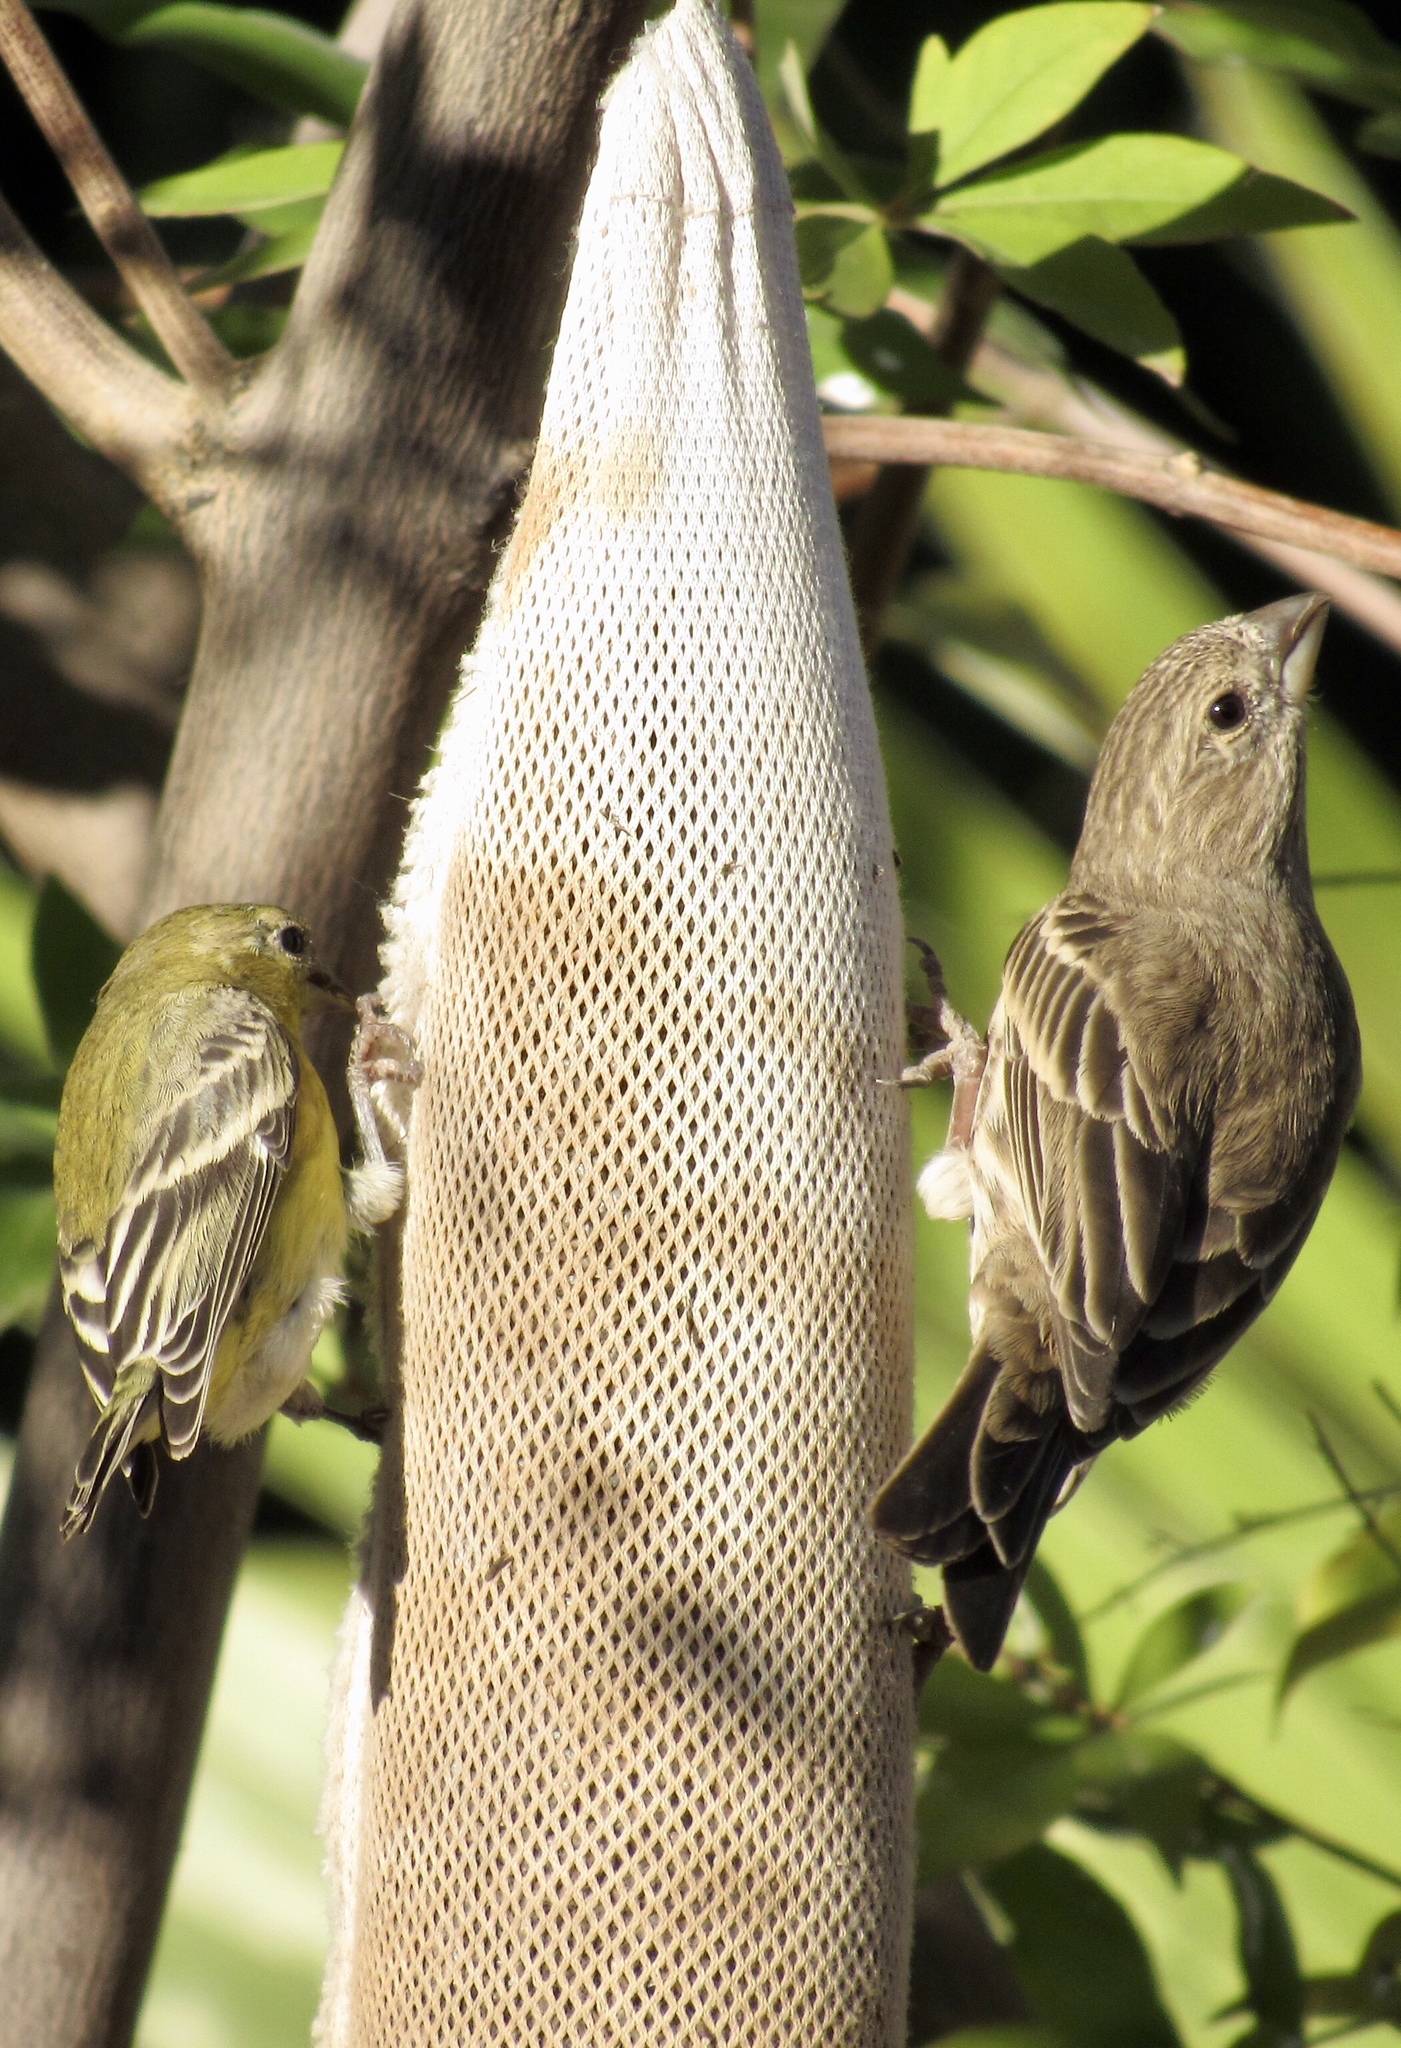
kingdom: Animalia
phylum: Chordata
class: Aves
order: Passeriformes
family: Fringillidae
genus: Haemorhous
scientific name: Haemorhous mexicanus
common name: House finch
